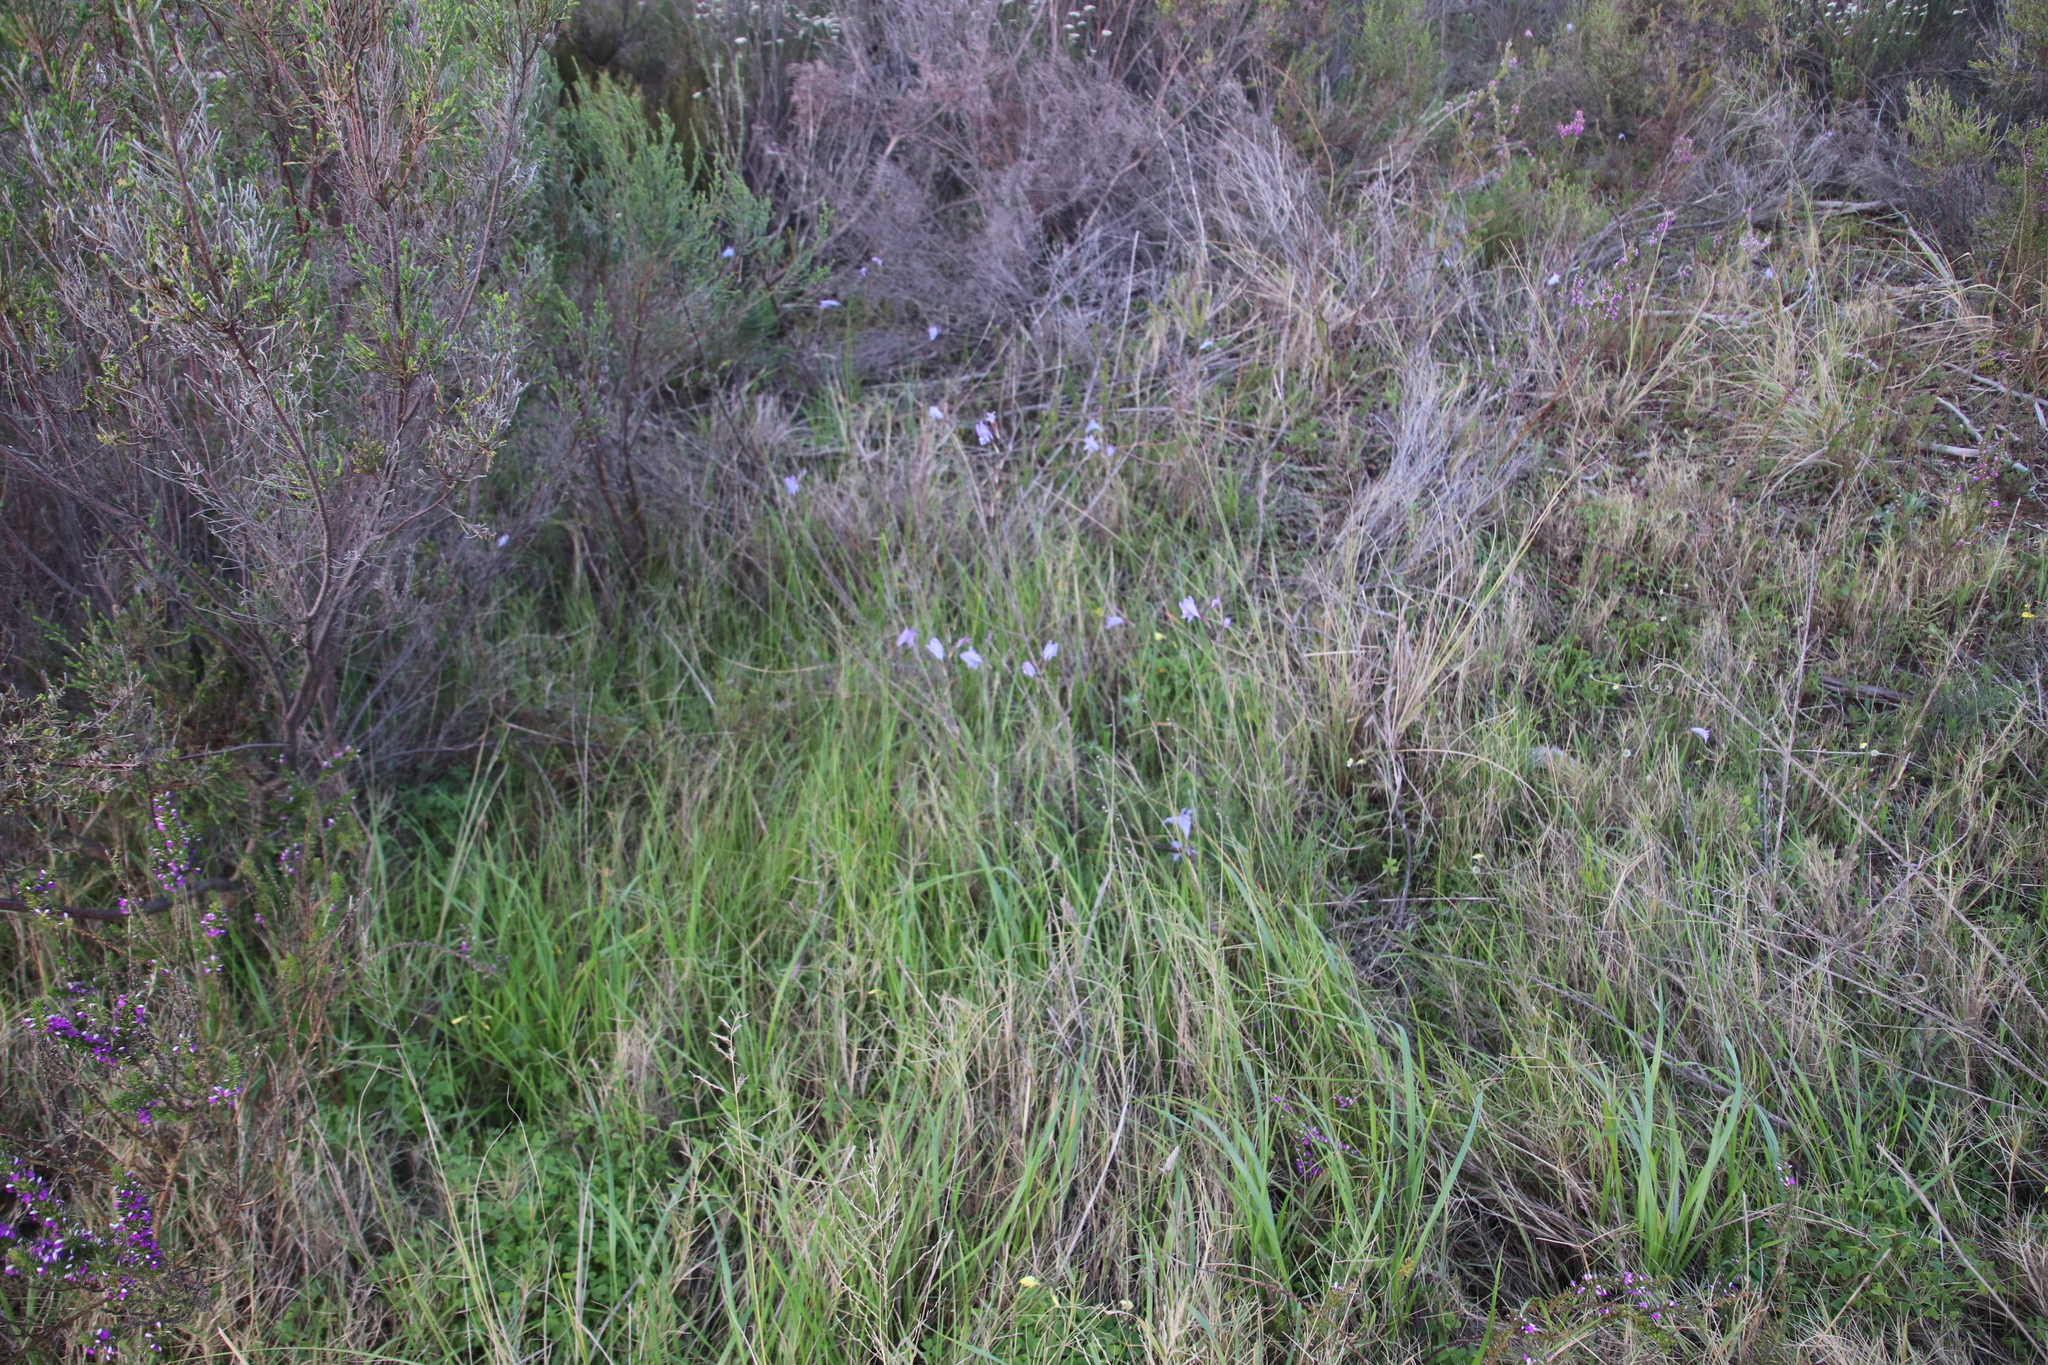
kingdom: Plantae
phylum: Tracheophyta
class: Liliopsida
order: Asparagales
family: Iridaceae
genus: Gladiolus
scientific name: Gladiolus gracilis
